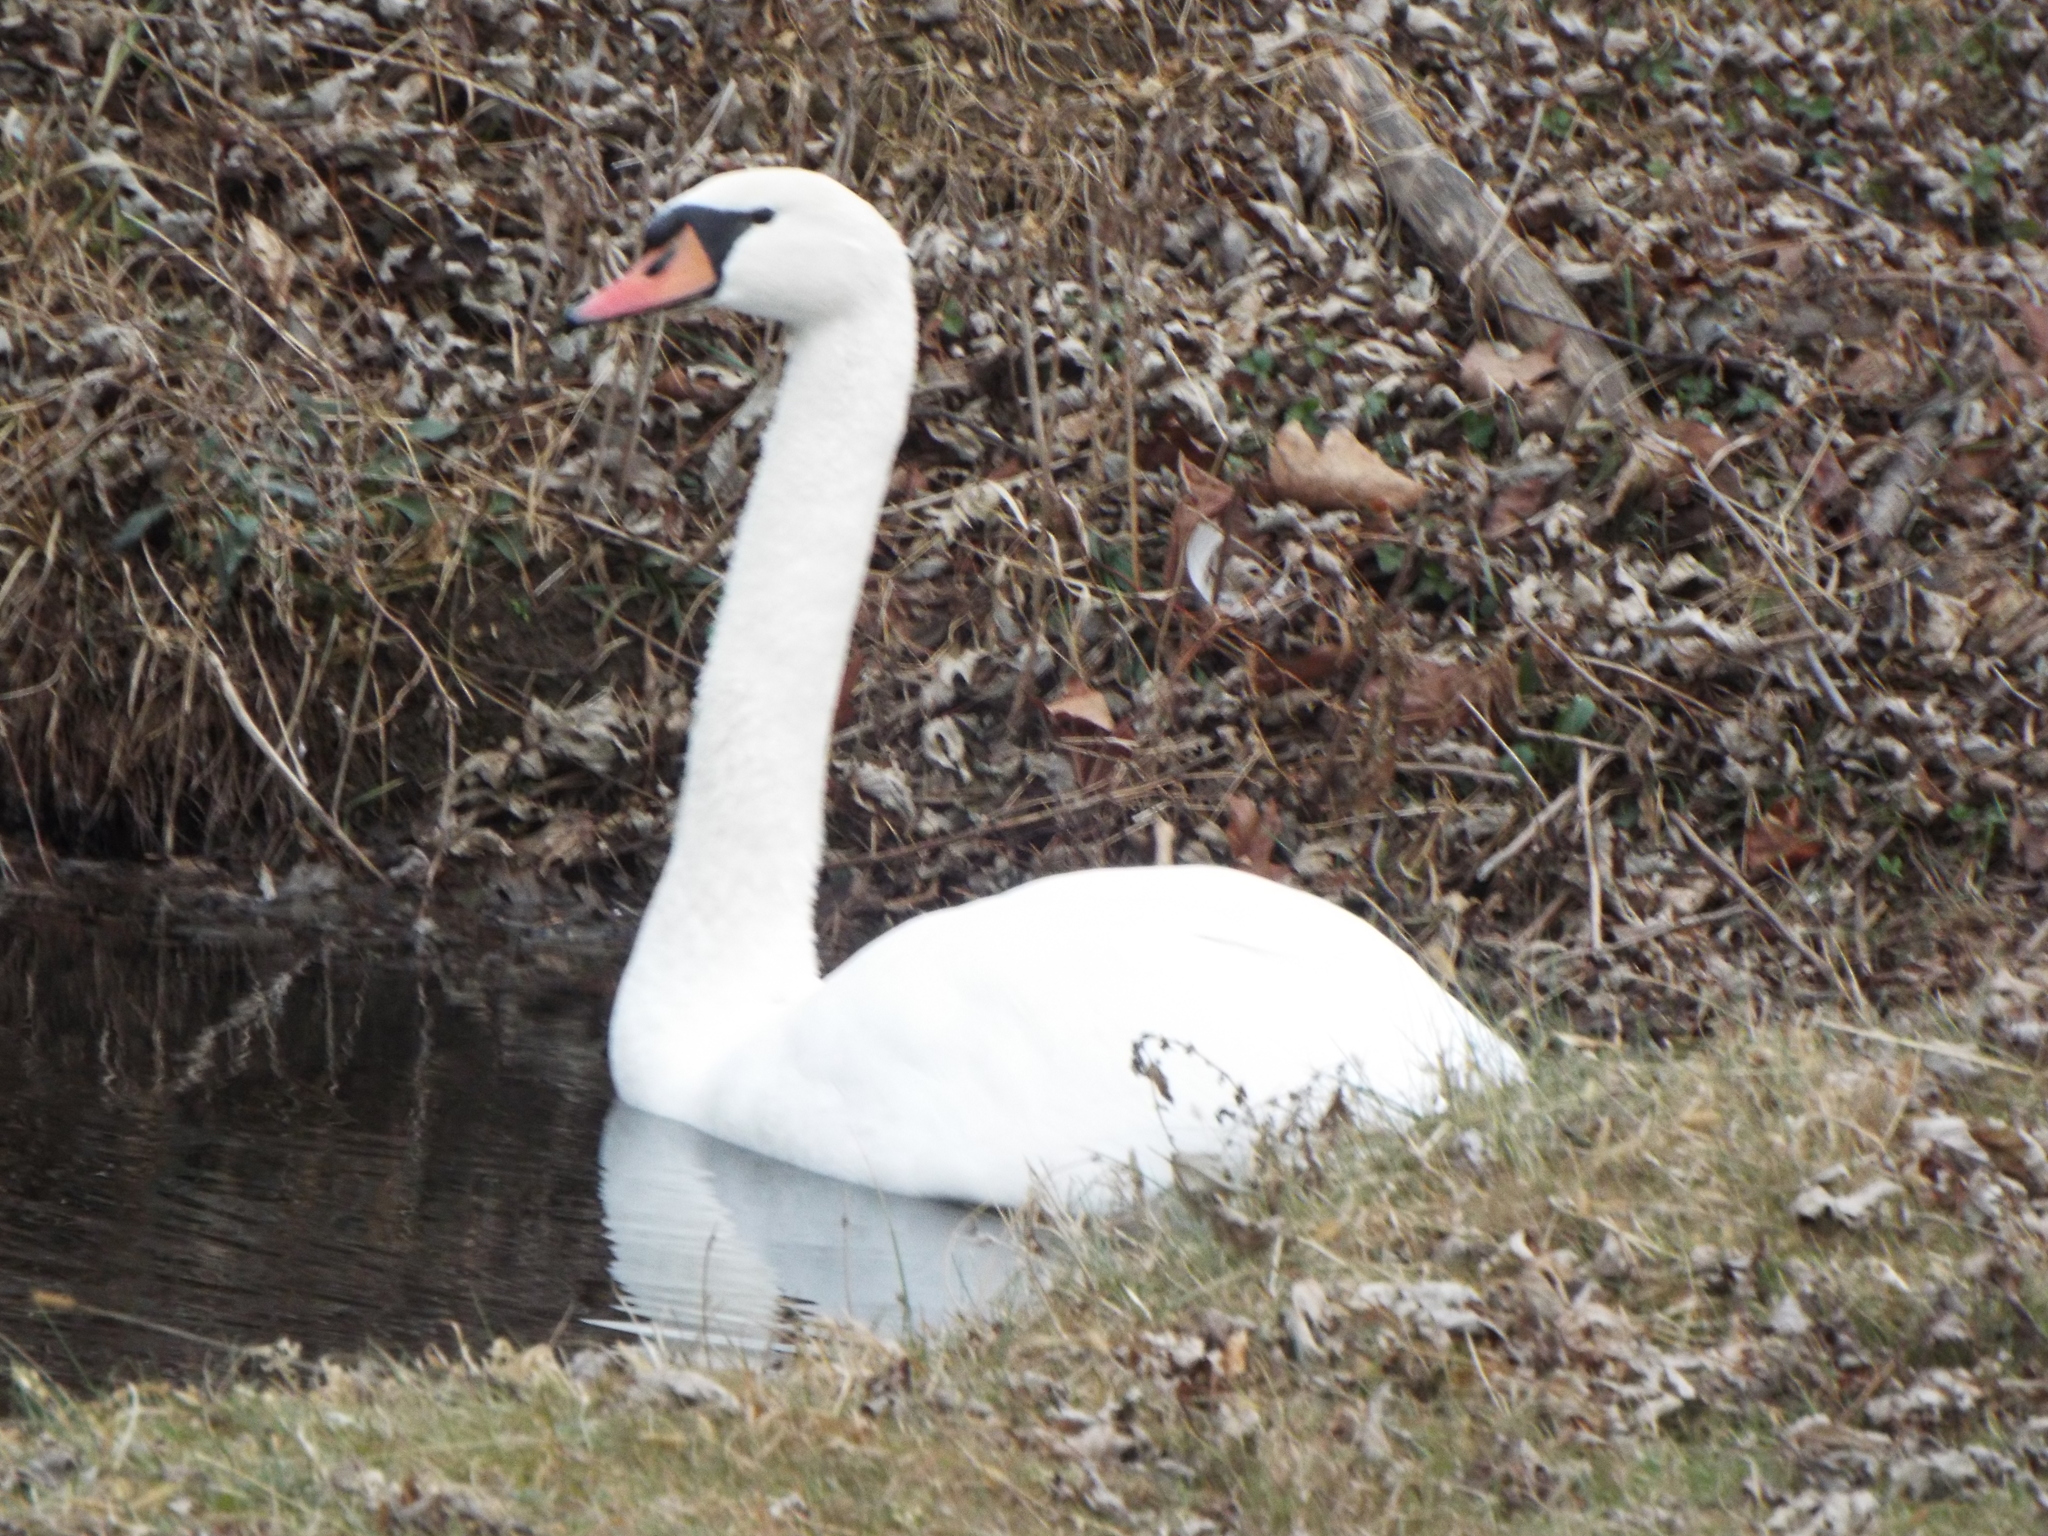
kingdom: Animalia
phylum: Chordata
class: Aves
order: Anseriformes
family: Anatidae
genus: Cygnus
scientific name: Cygnus olor
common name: Mute swan
